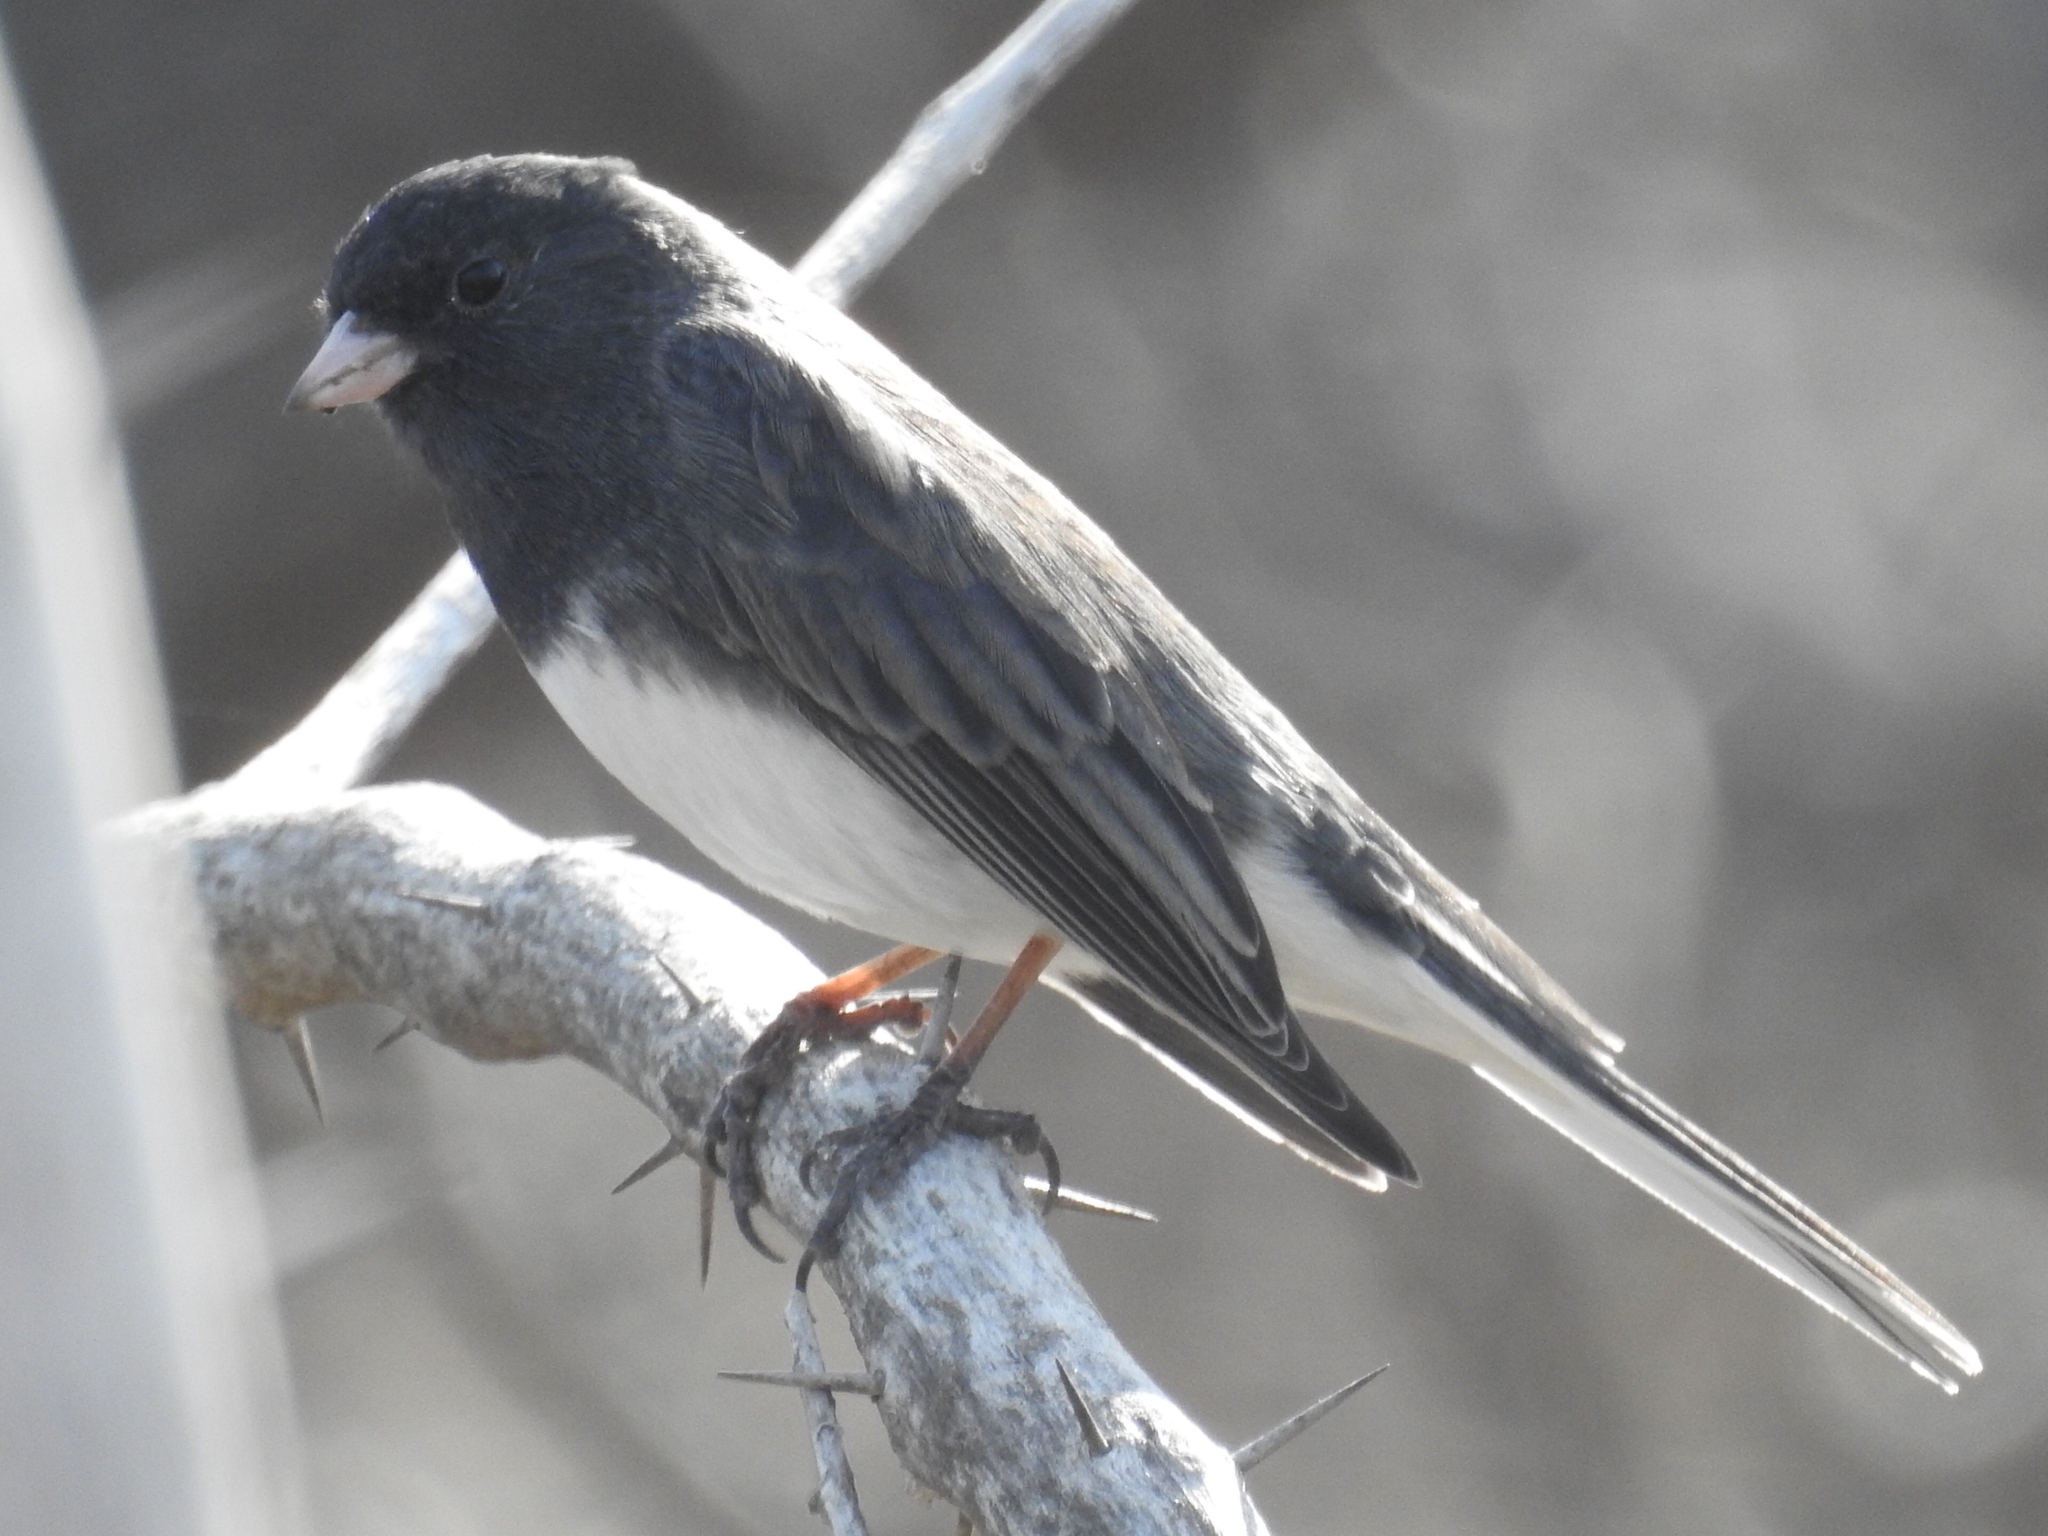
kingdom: Animalia
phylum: Chordata
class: Aves
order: Passeriformes
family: Passerellidae
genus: Junco
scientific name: Junco hyemalis
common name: Dark-eyed junco
